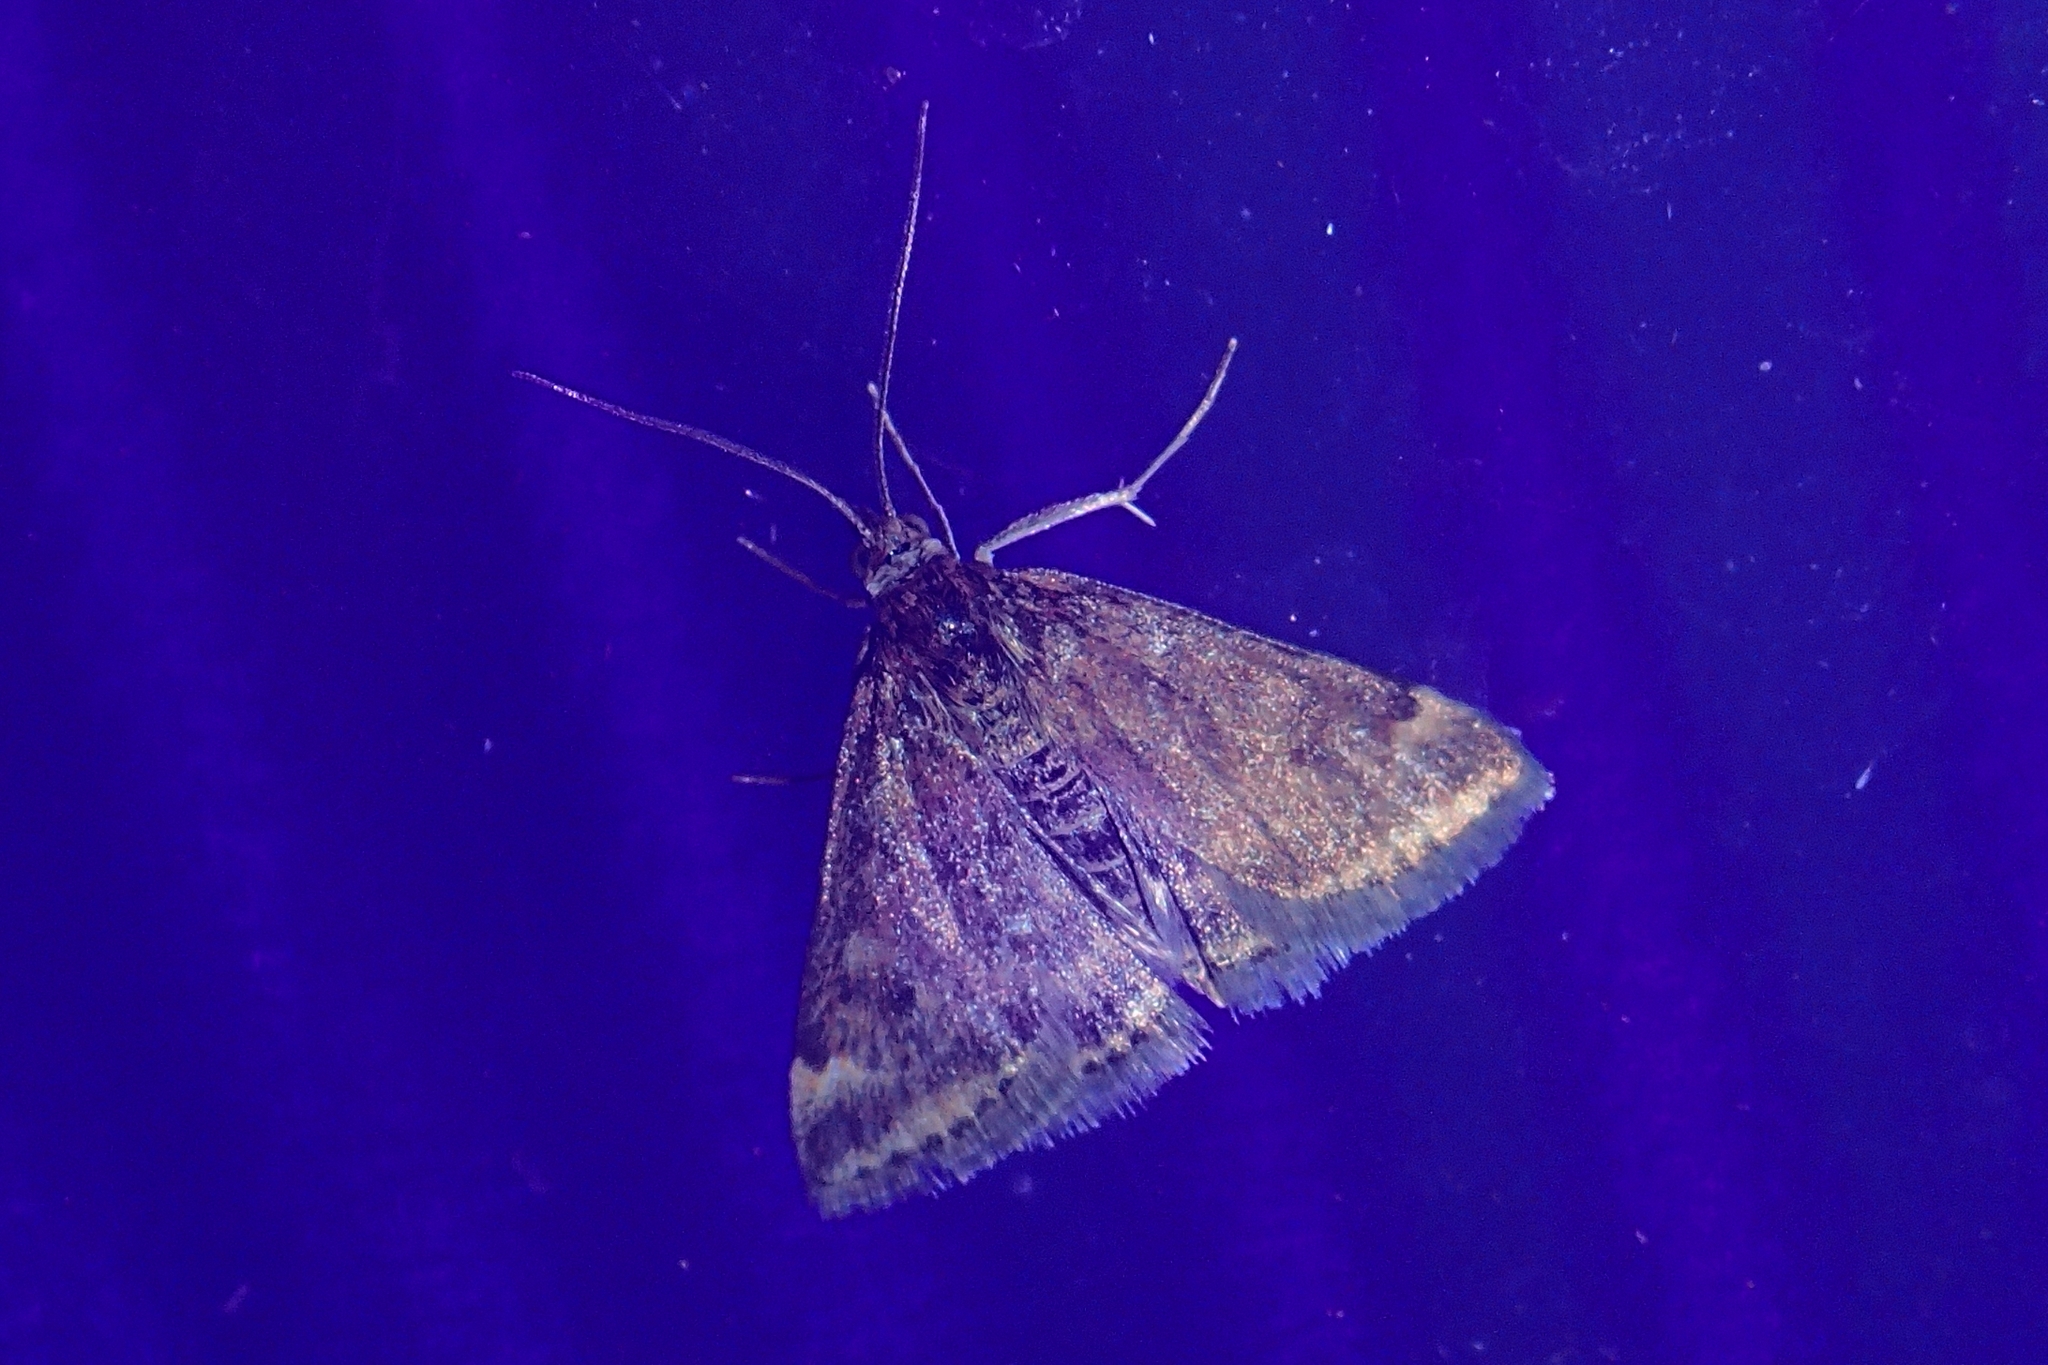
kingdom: Animalia
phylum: Arthropoda
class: Insecta
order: Lepidoptera
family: Crambidae
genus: Pyrausta
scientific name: Pyrausta despicata
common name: Straw-barred pearl
